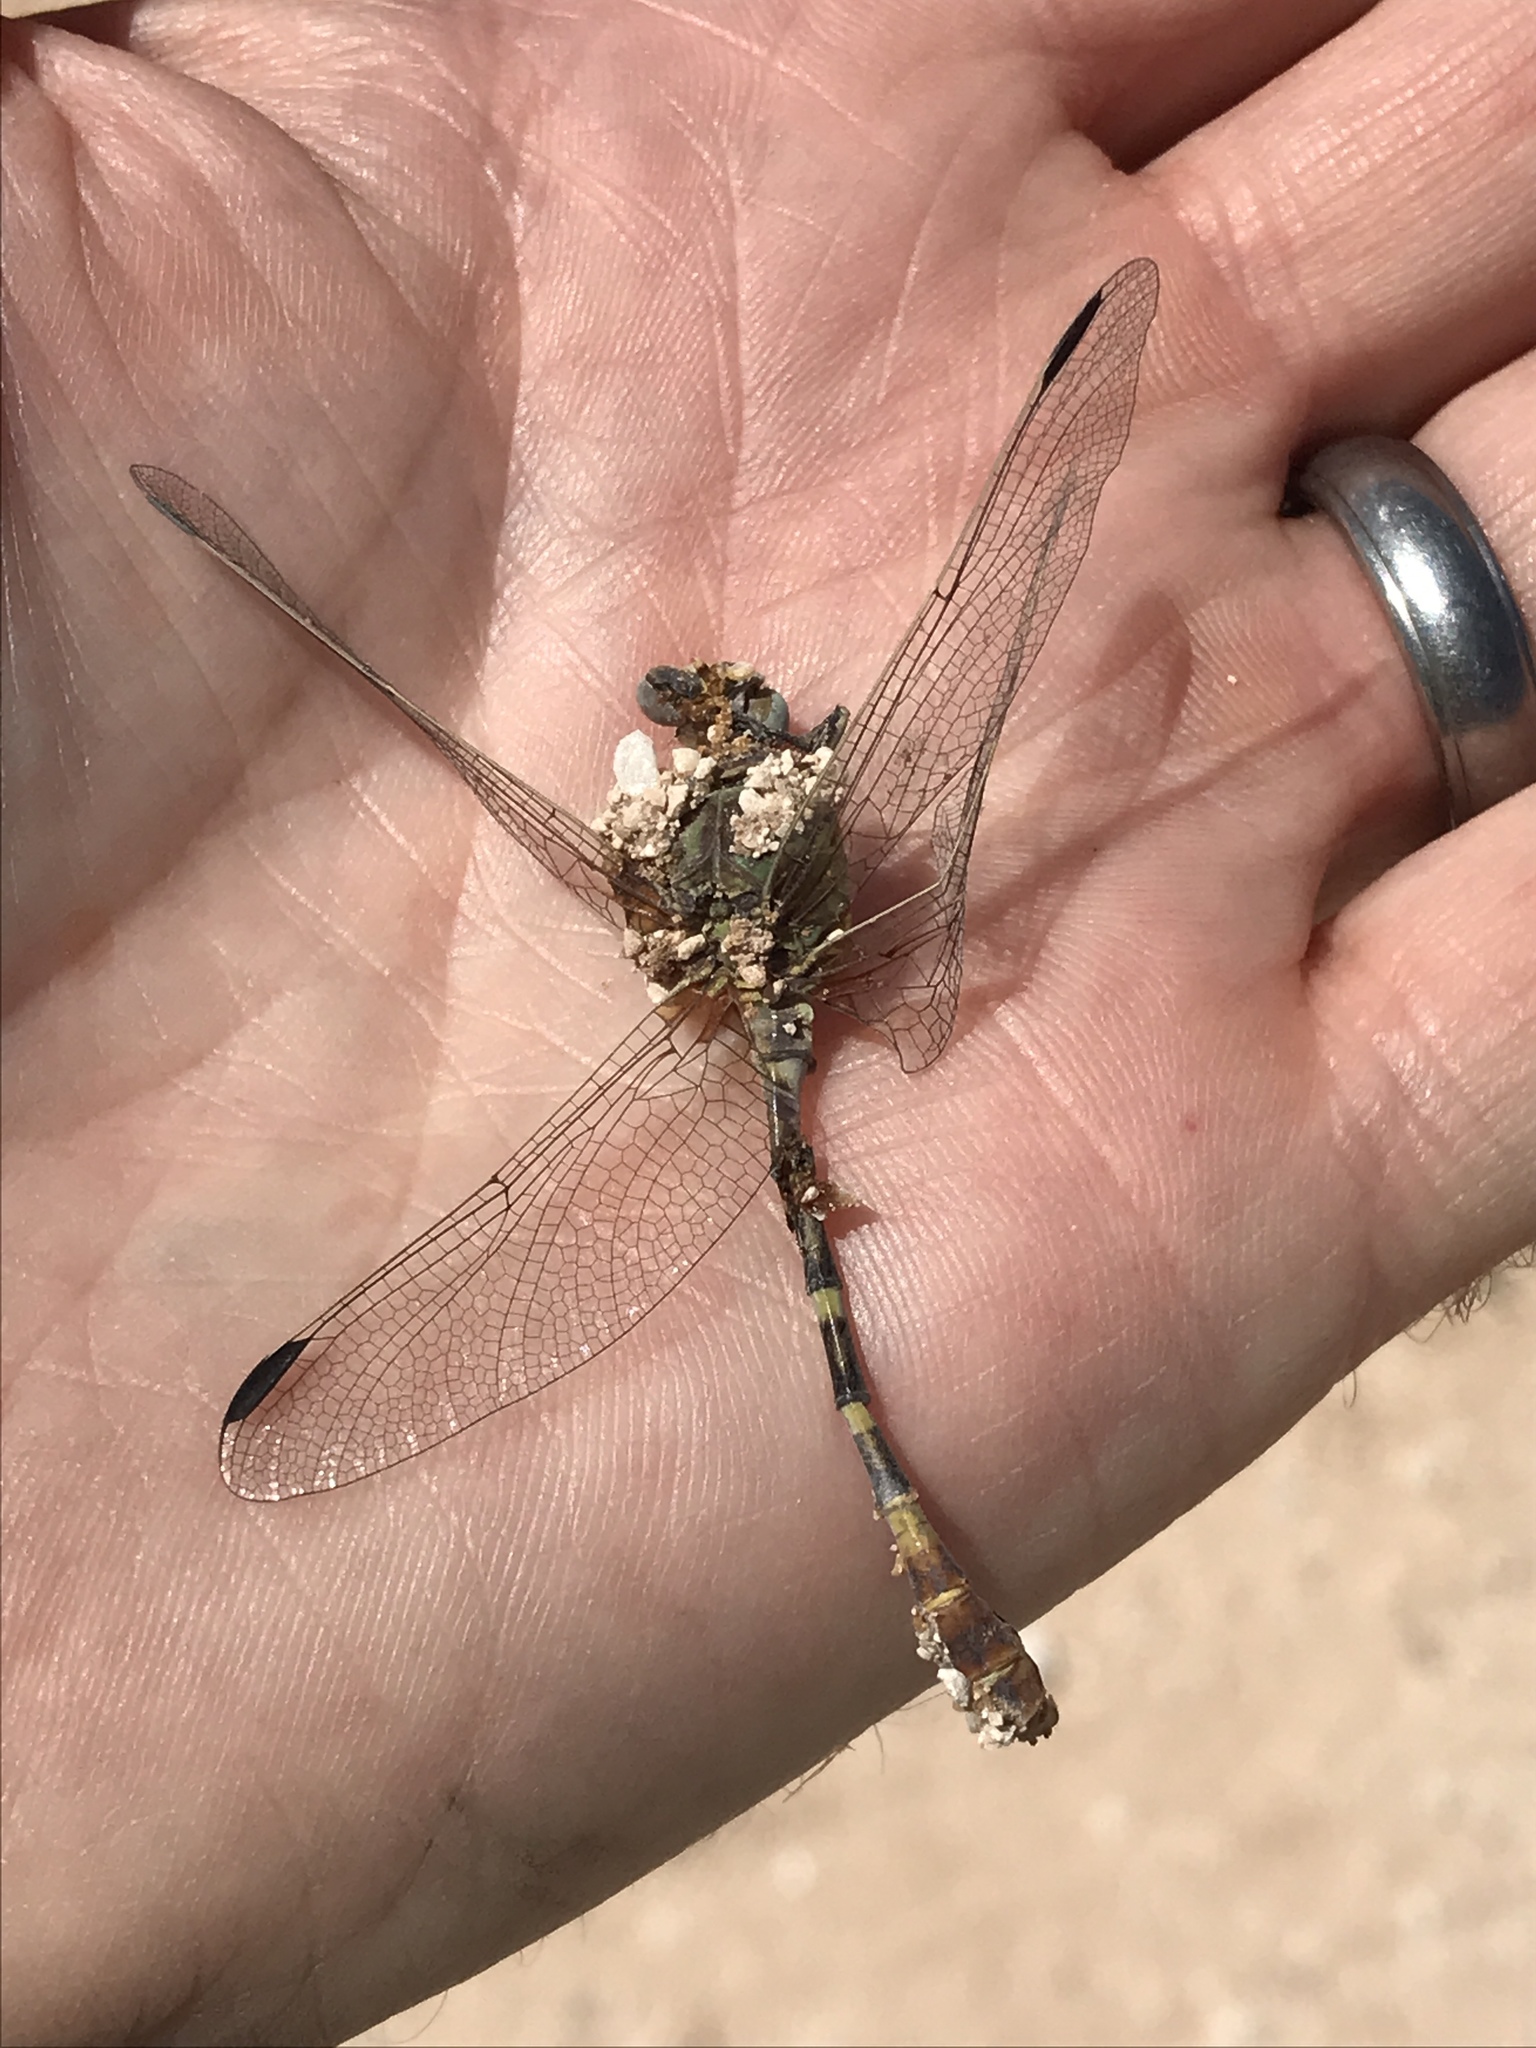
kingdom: Animalia
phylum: Arthropoda
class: Insecta
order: Odonata
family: Gomphidae
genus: Erpetogomphus
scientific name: Erpetogomphus designatus
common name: Eastern ringtail
